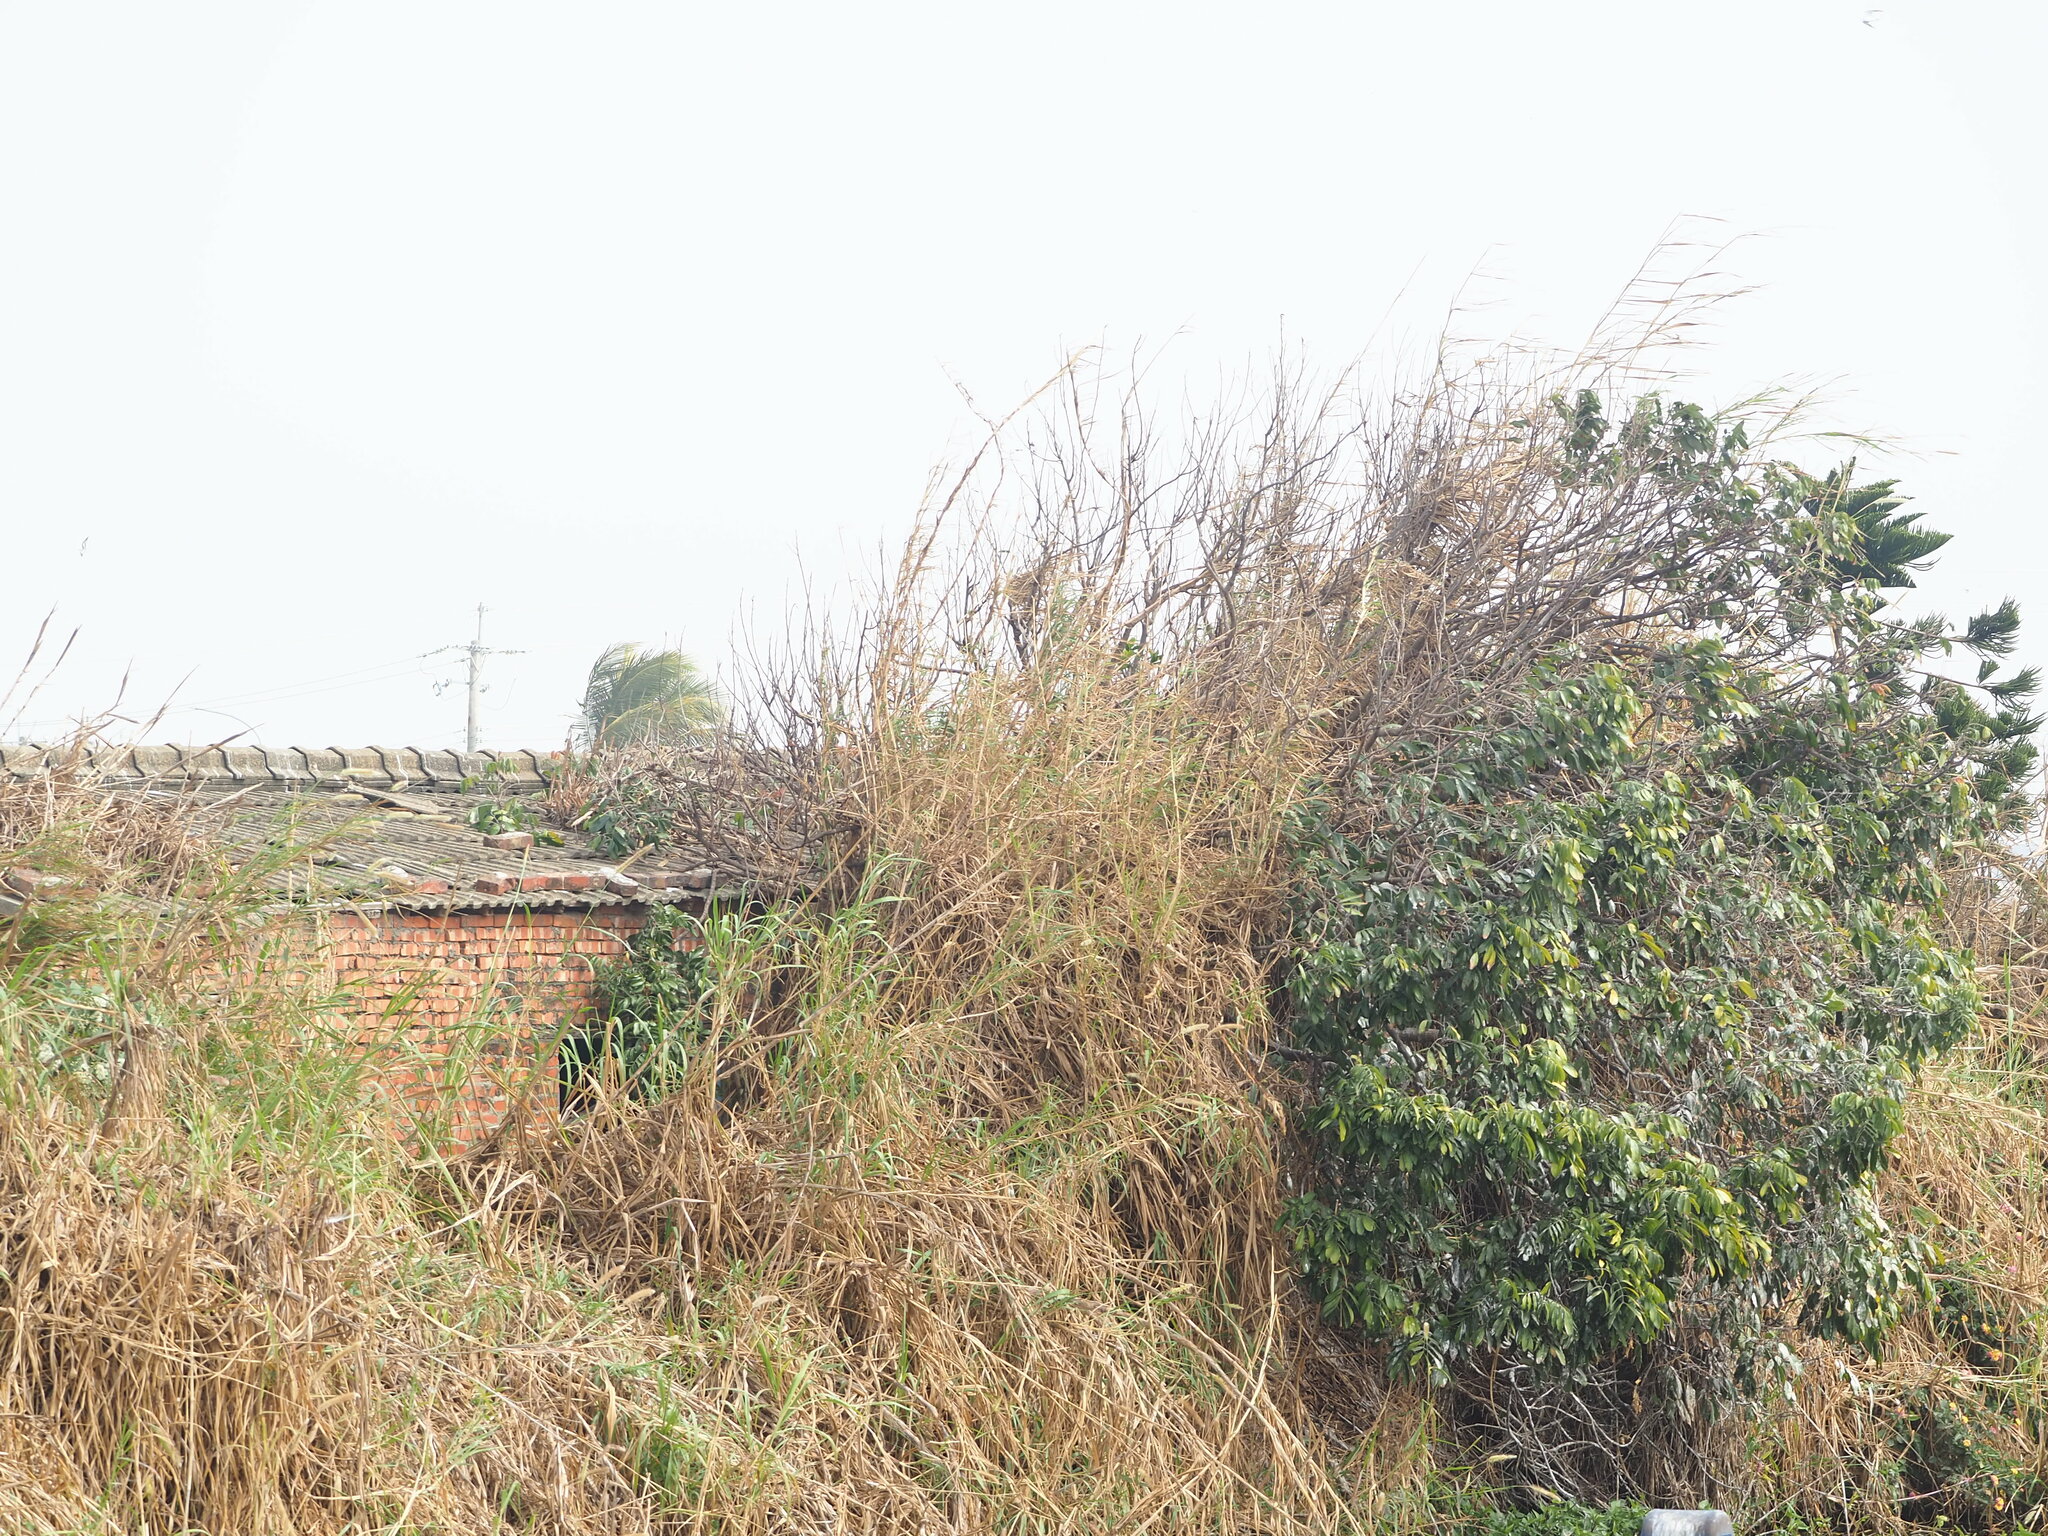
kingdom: Plantae
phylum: Tracheophyta
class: Magnoliopsida
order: Sapindales
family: Sapindaceae
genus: Dimocarpus
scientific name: Dimocarpus longan
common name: Longan
